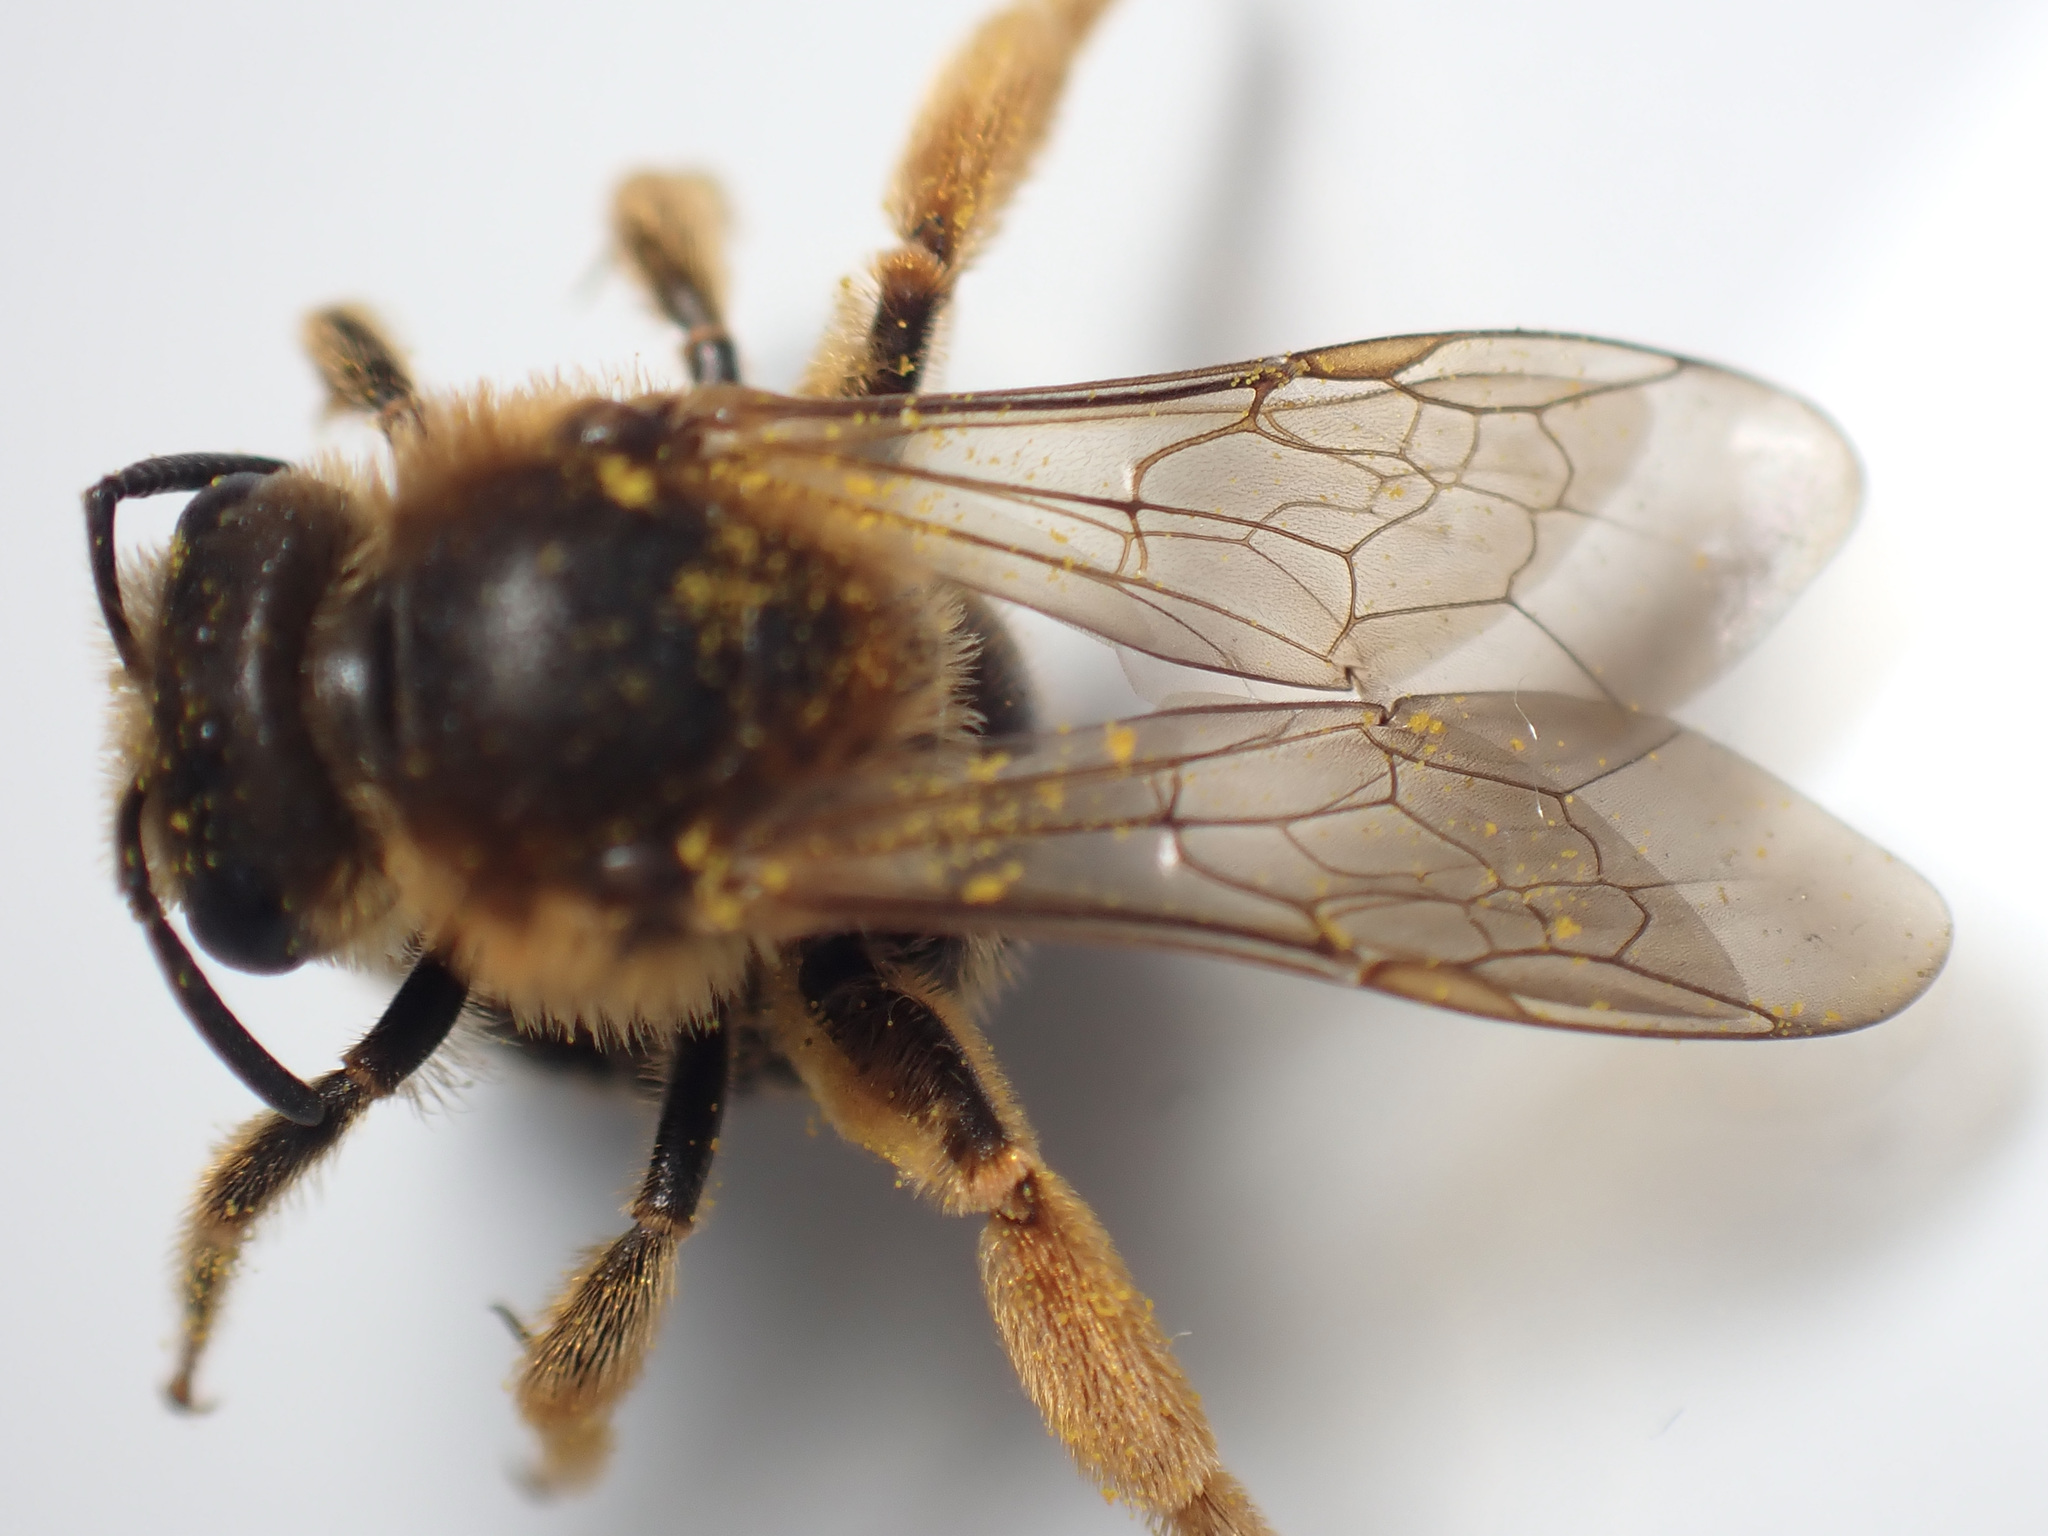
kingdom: Animalia
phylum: Arthropoda
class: Insecta
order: Hymenoptera
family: Halictidae
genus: Halictus
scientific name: Halictus rubicundus
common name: Orange-legged furrow bee
